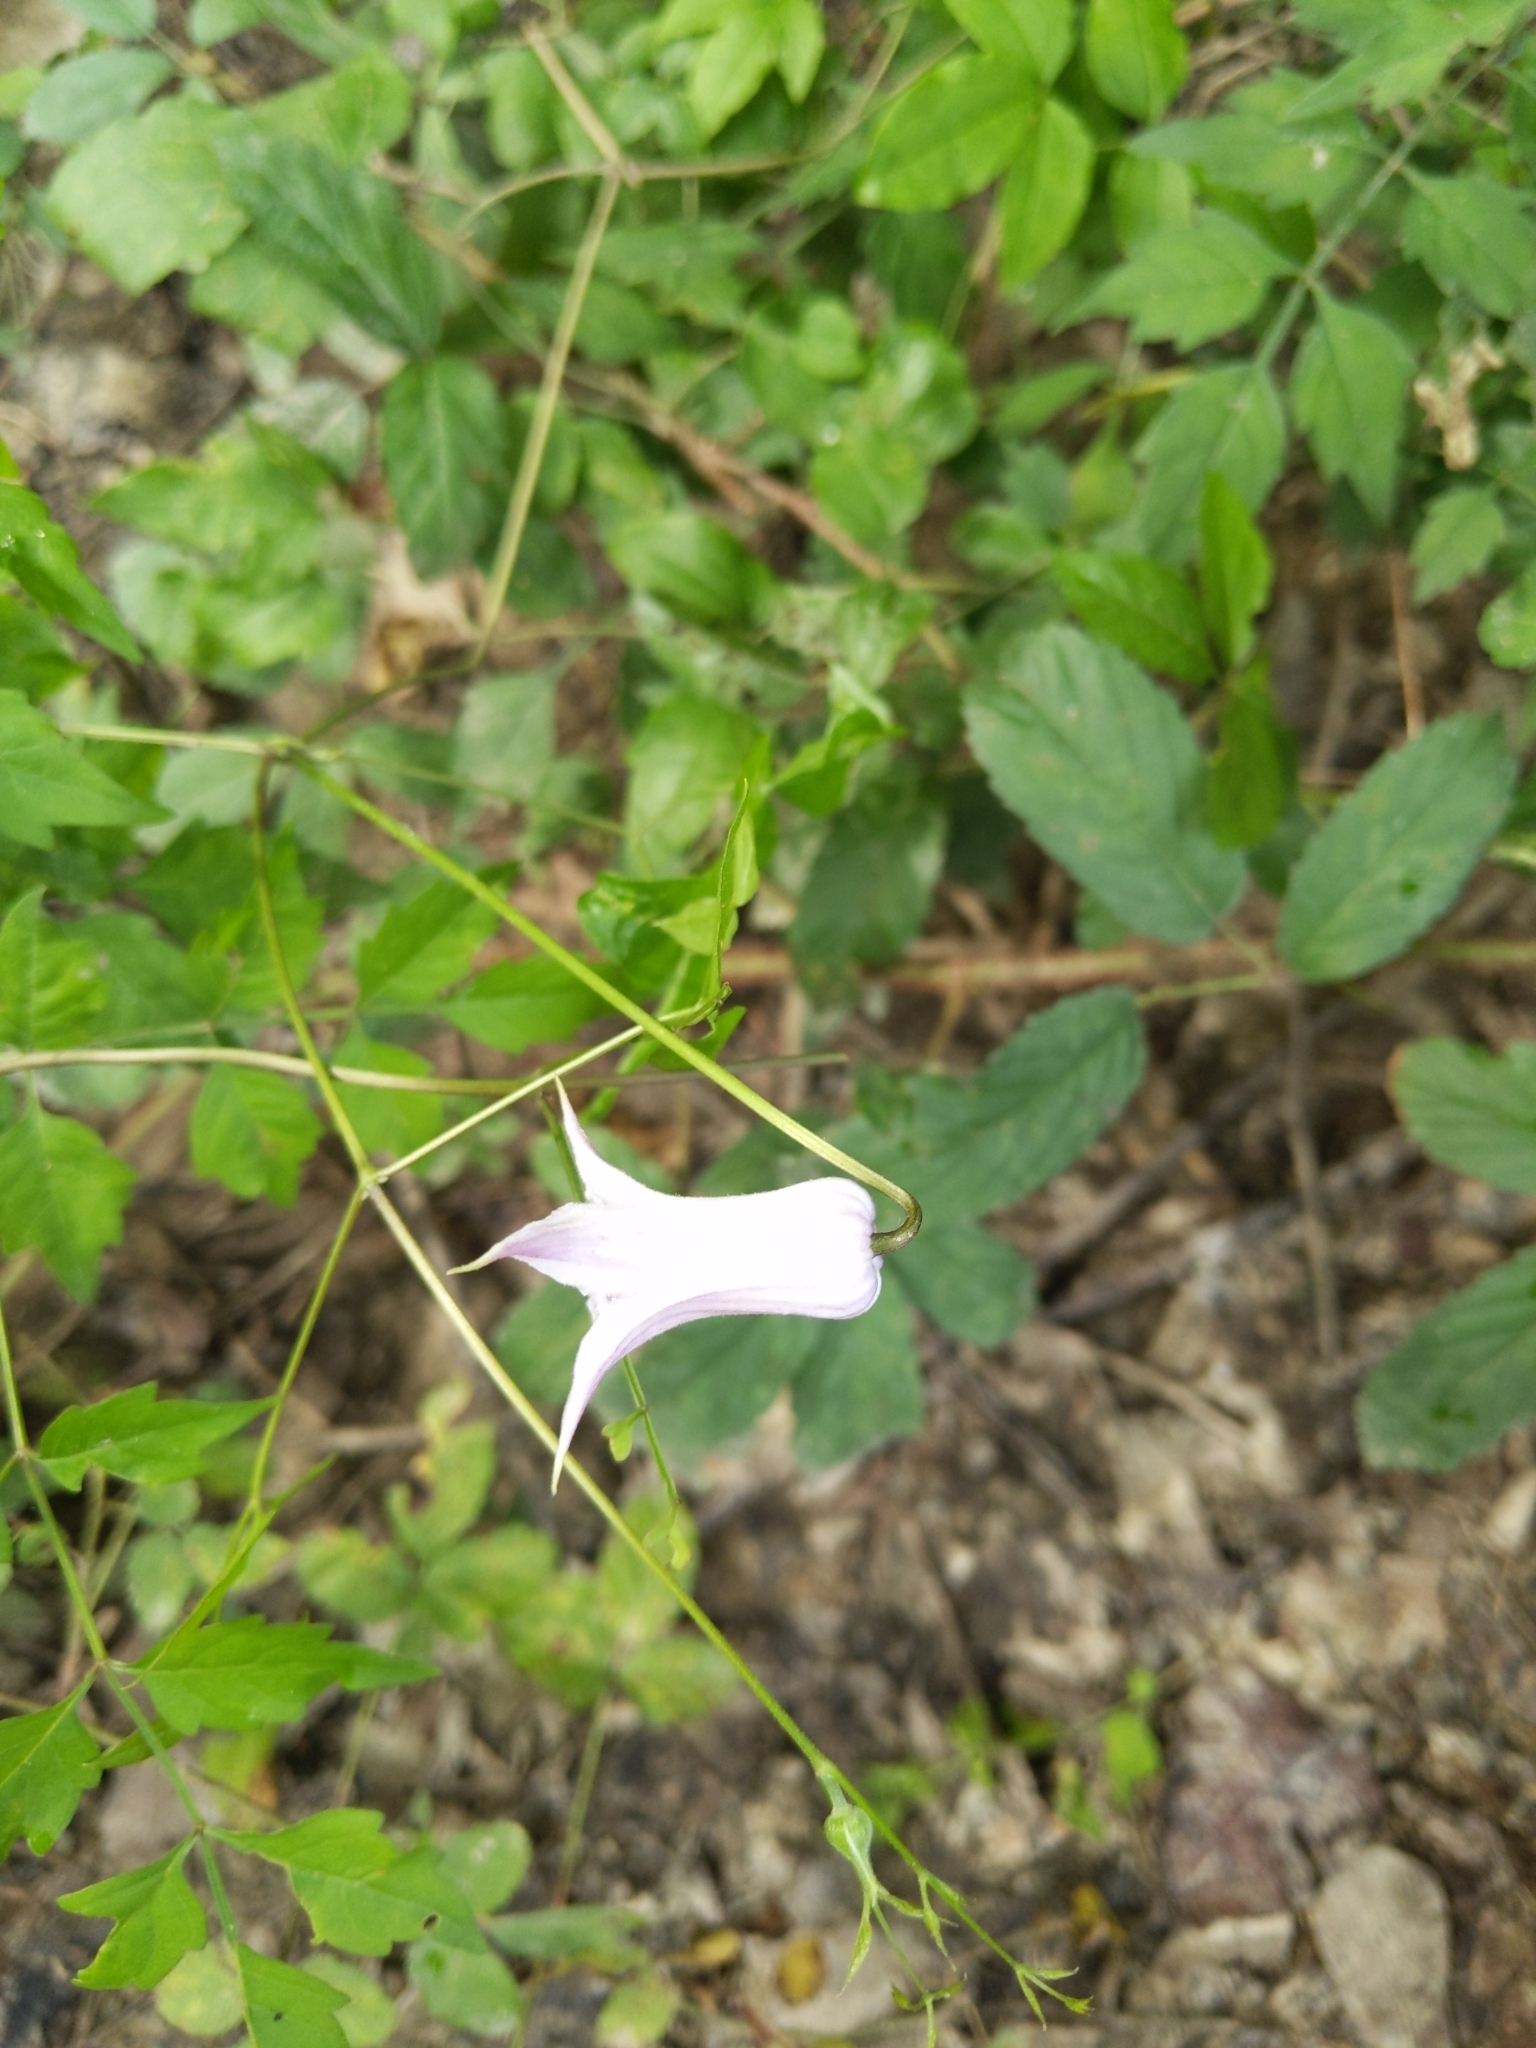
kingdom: Plantae
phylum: Tracheophyta
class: Magnoliopsida
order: Ranunculales
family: Ranunculaceae
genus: Clematis
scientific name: Clematis crispa
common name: Curly clematis
